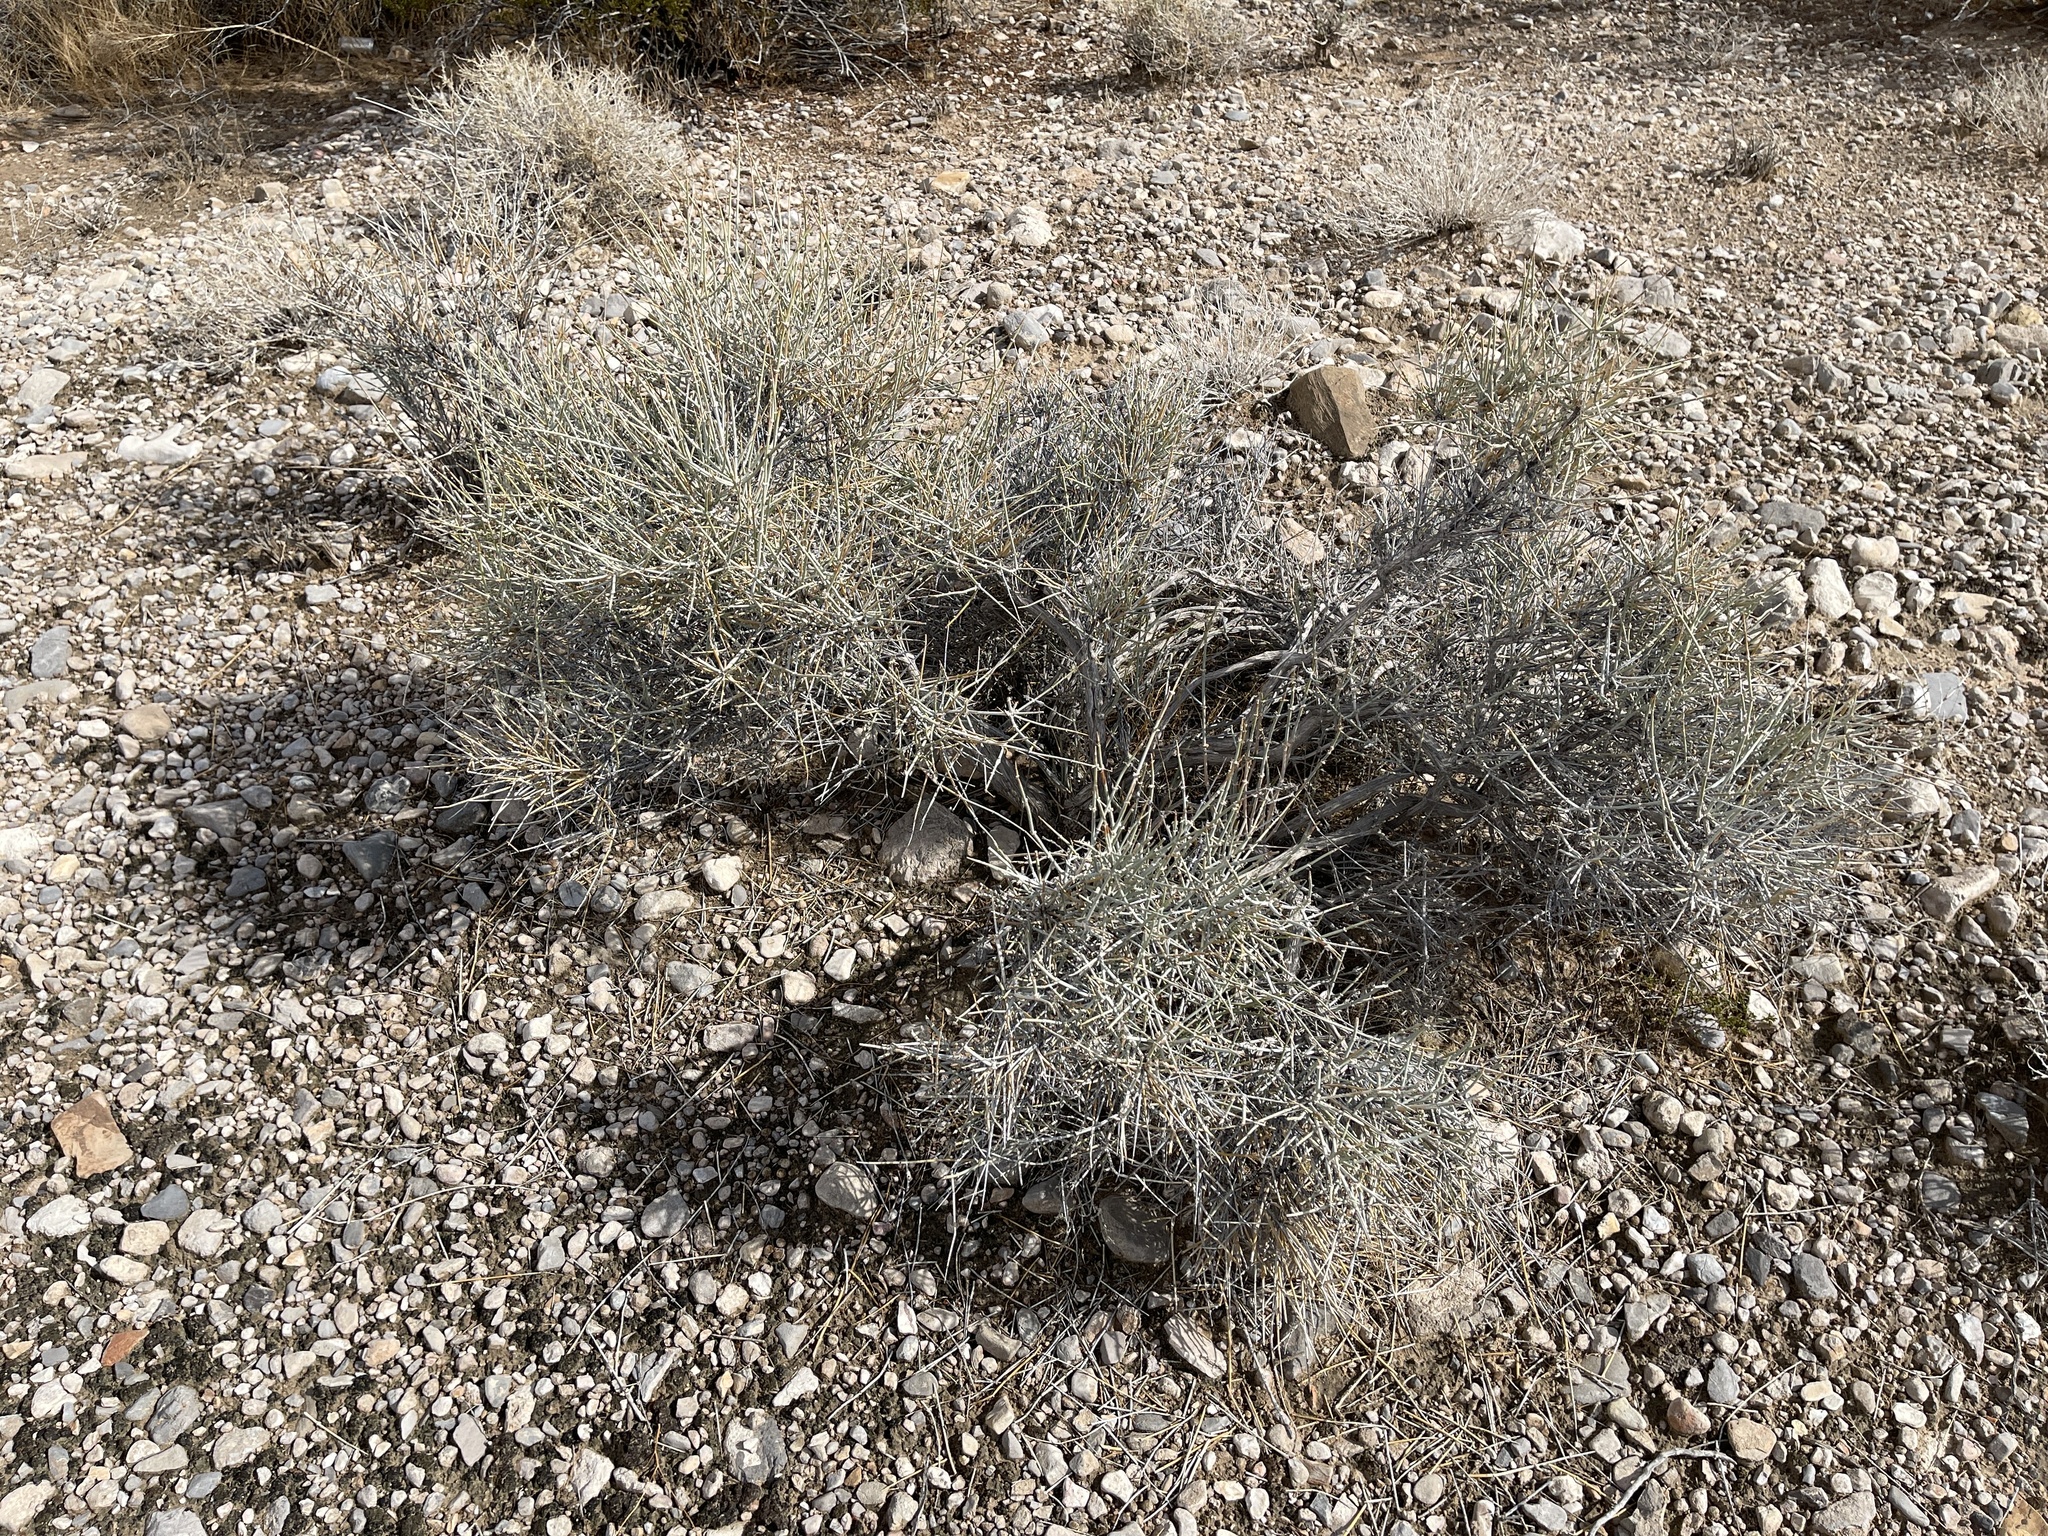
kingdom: Plantae
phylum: Tracheophyta
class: Gnetopsida
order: Ephedrales
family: Ephedraceae
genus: Ephedra
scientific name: Ephedra nevadensis
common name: Gray ephedra
